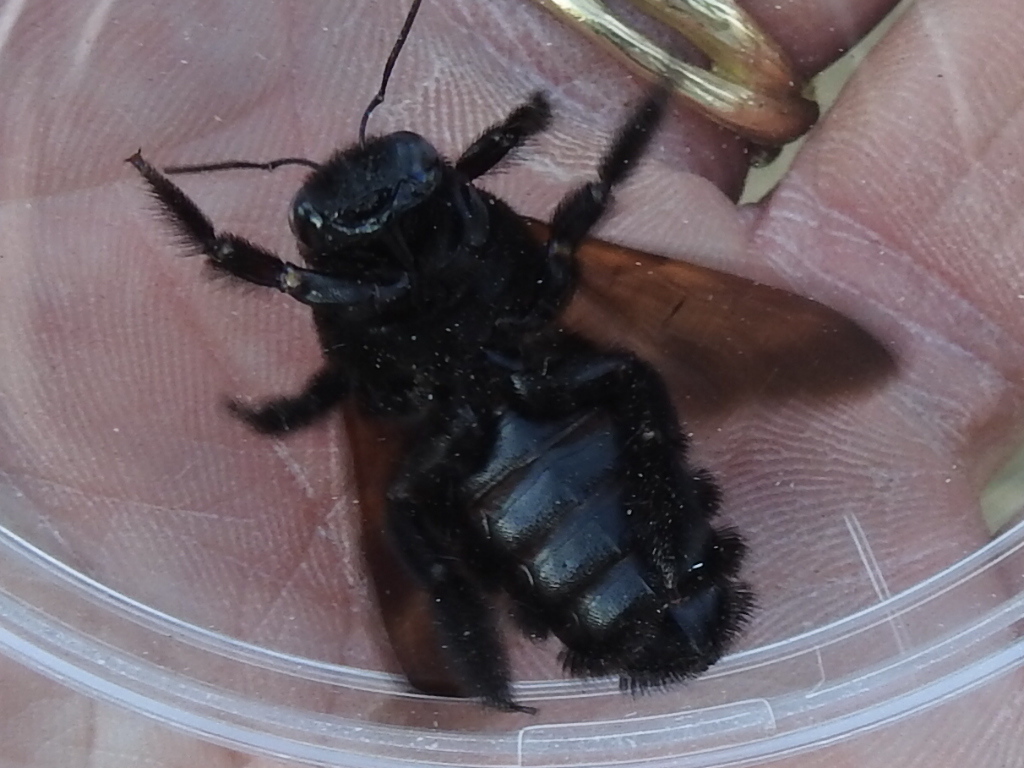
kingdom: Animalia
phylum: Arthropoda
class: Insecta
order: Hymenoptera
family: Apidae
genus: Xylocopa
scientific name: Xylocopa sonorina
